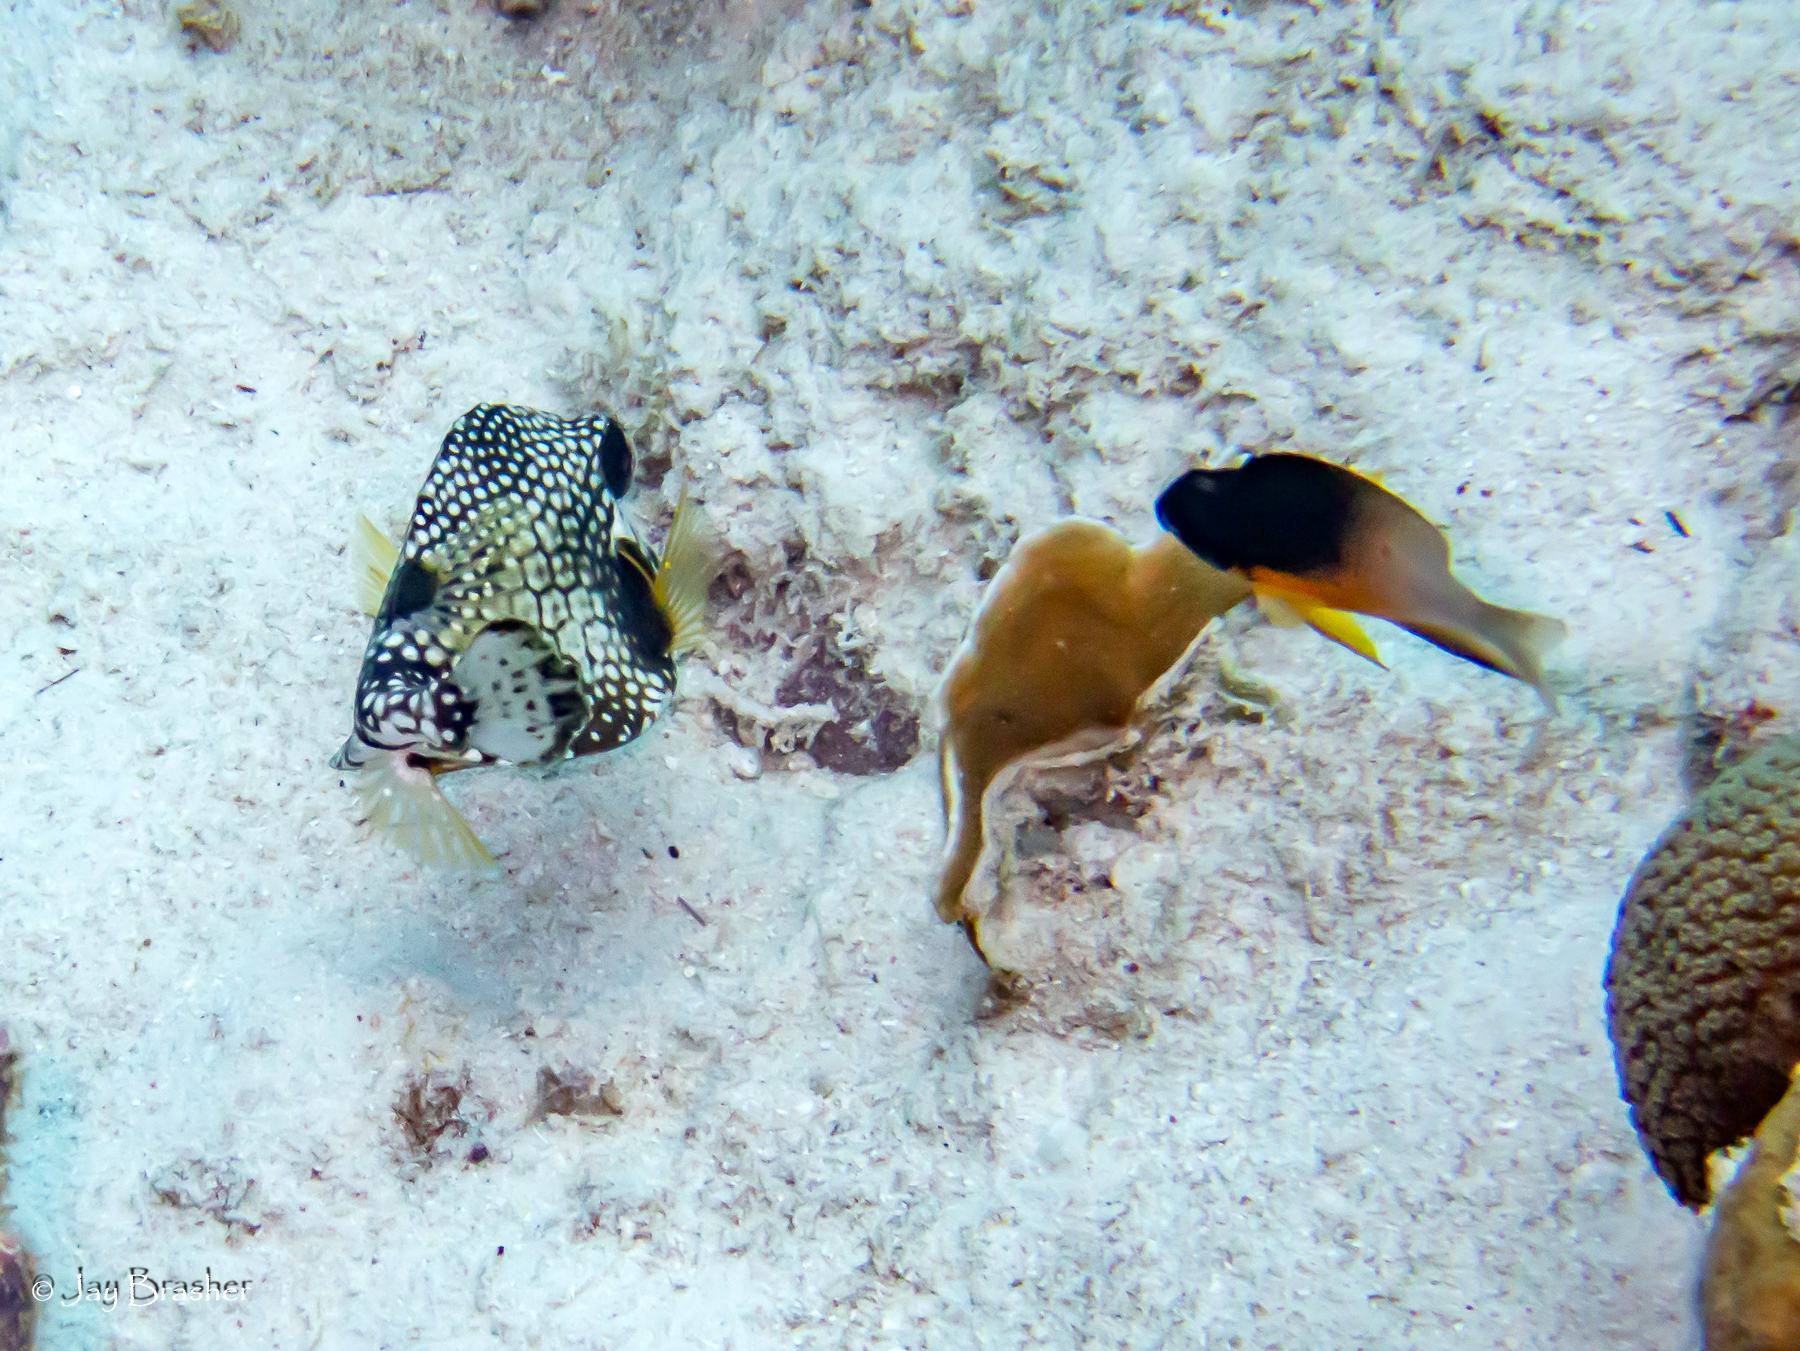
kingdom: Animalia
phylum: Chordata
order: Tetraodontiformes
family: Ostraciidae
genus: Lactophrys
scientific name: Lactophrys triqueter
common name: Smooth trunkfish
